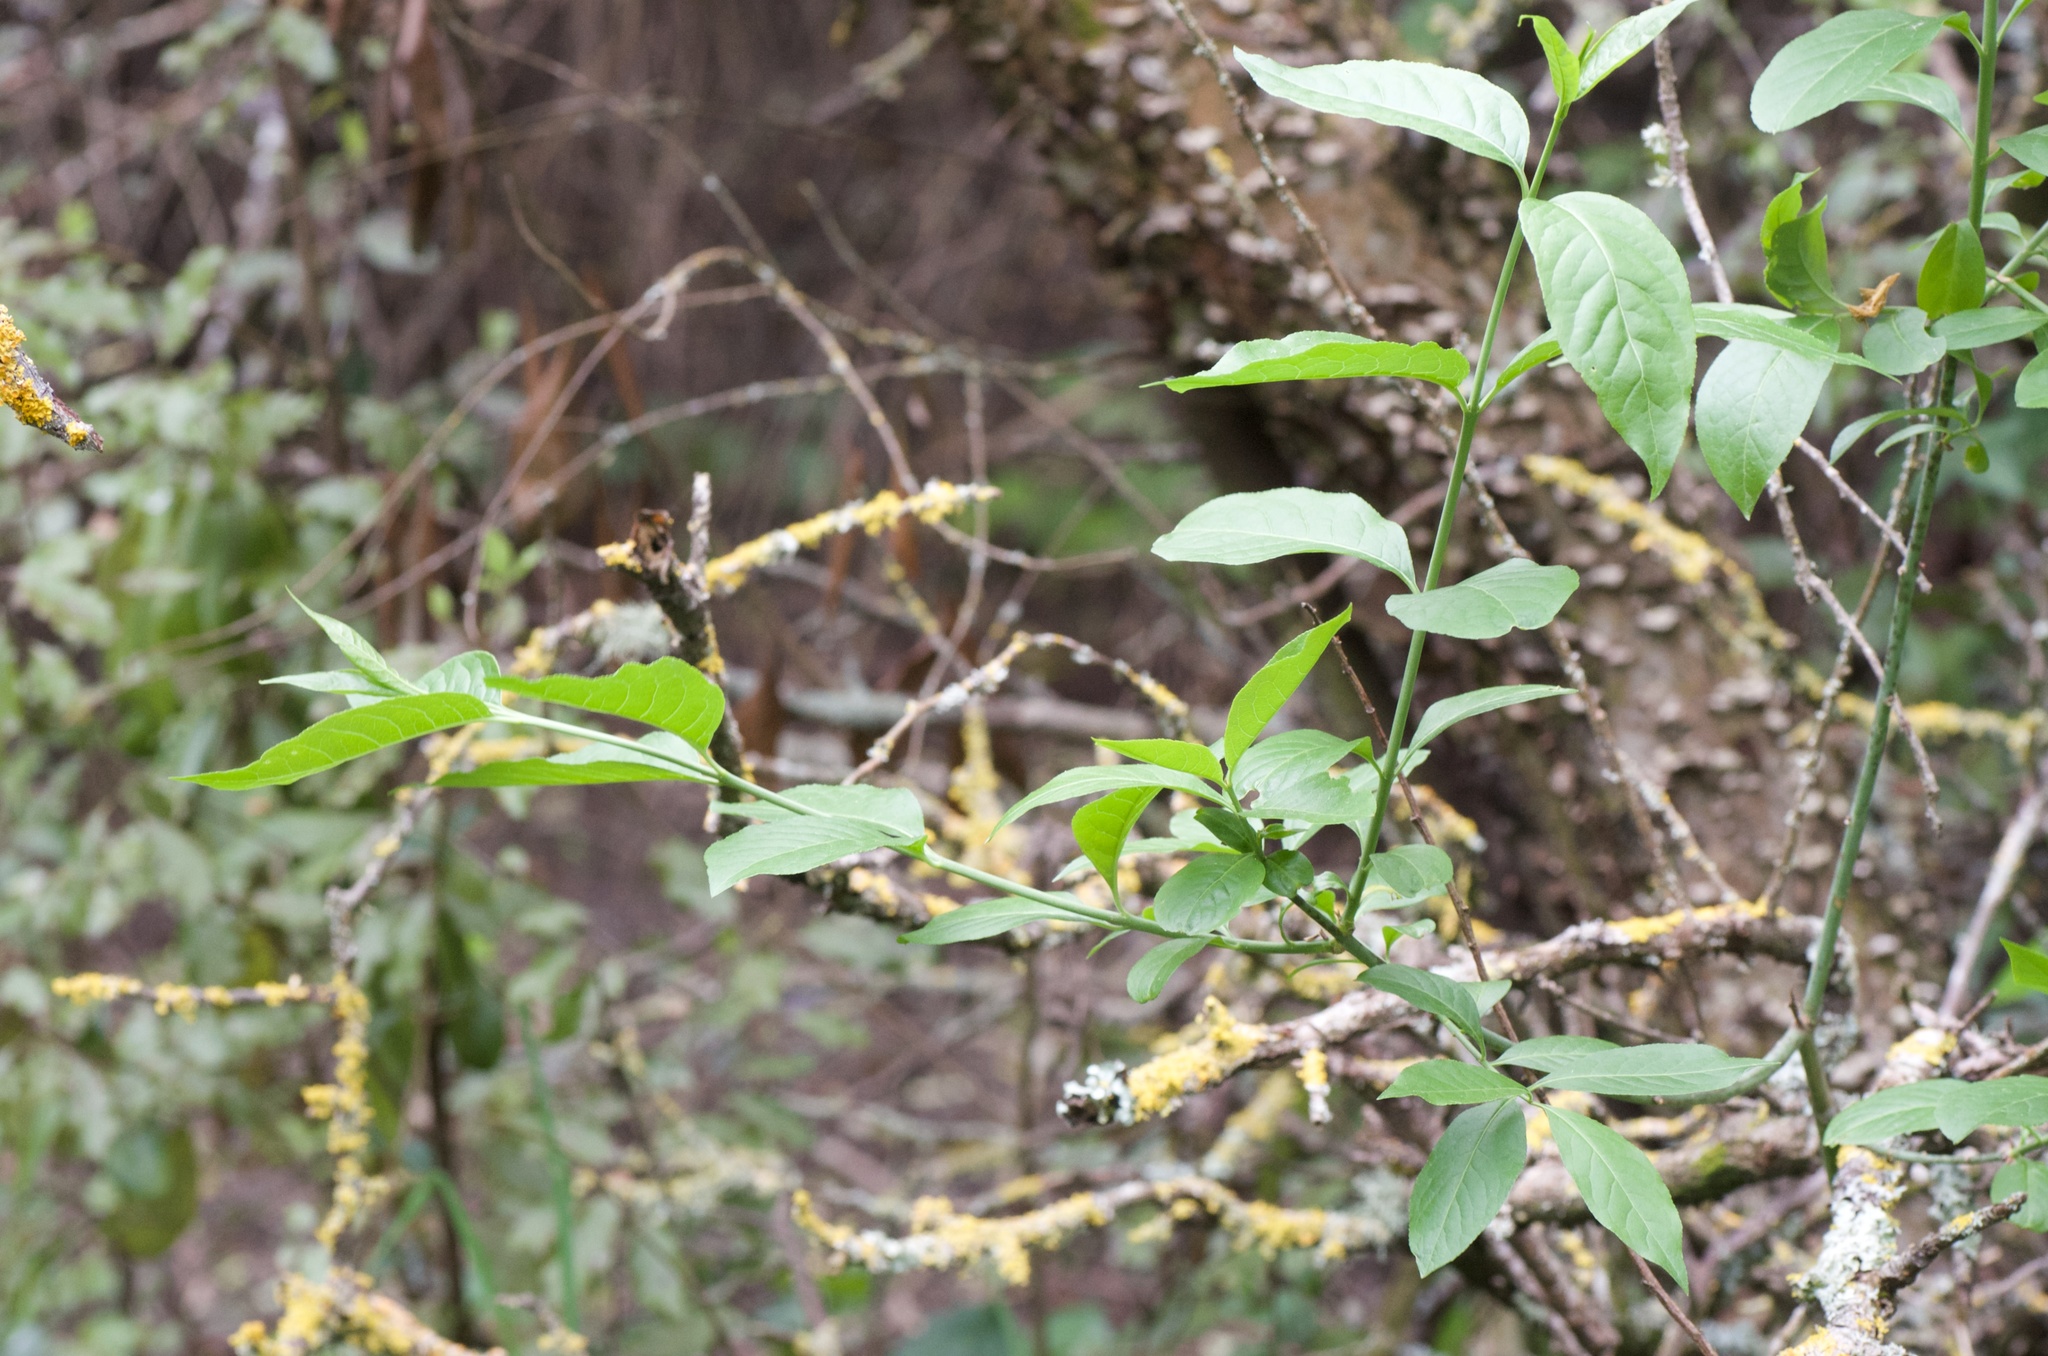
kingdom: Plantae
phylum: Tracheophyta
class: Magnoliopsida
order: Celastrales
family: Celastraceae
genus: Euonymus
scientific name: Euonymus europaeus
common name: Spindle
